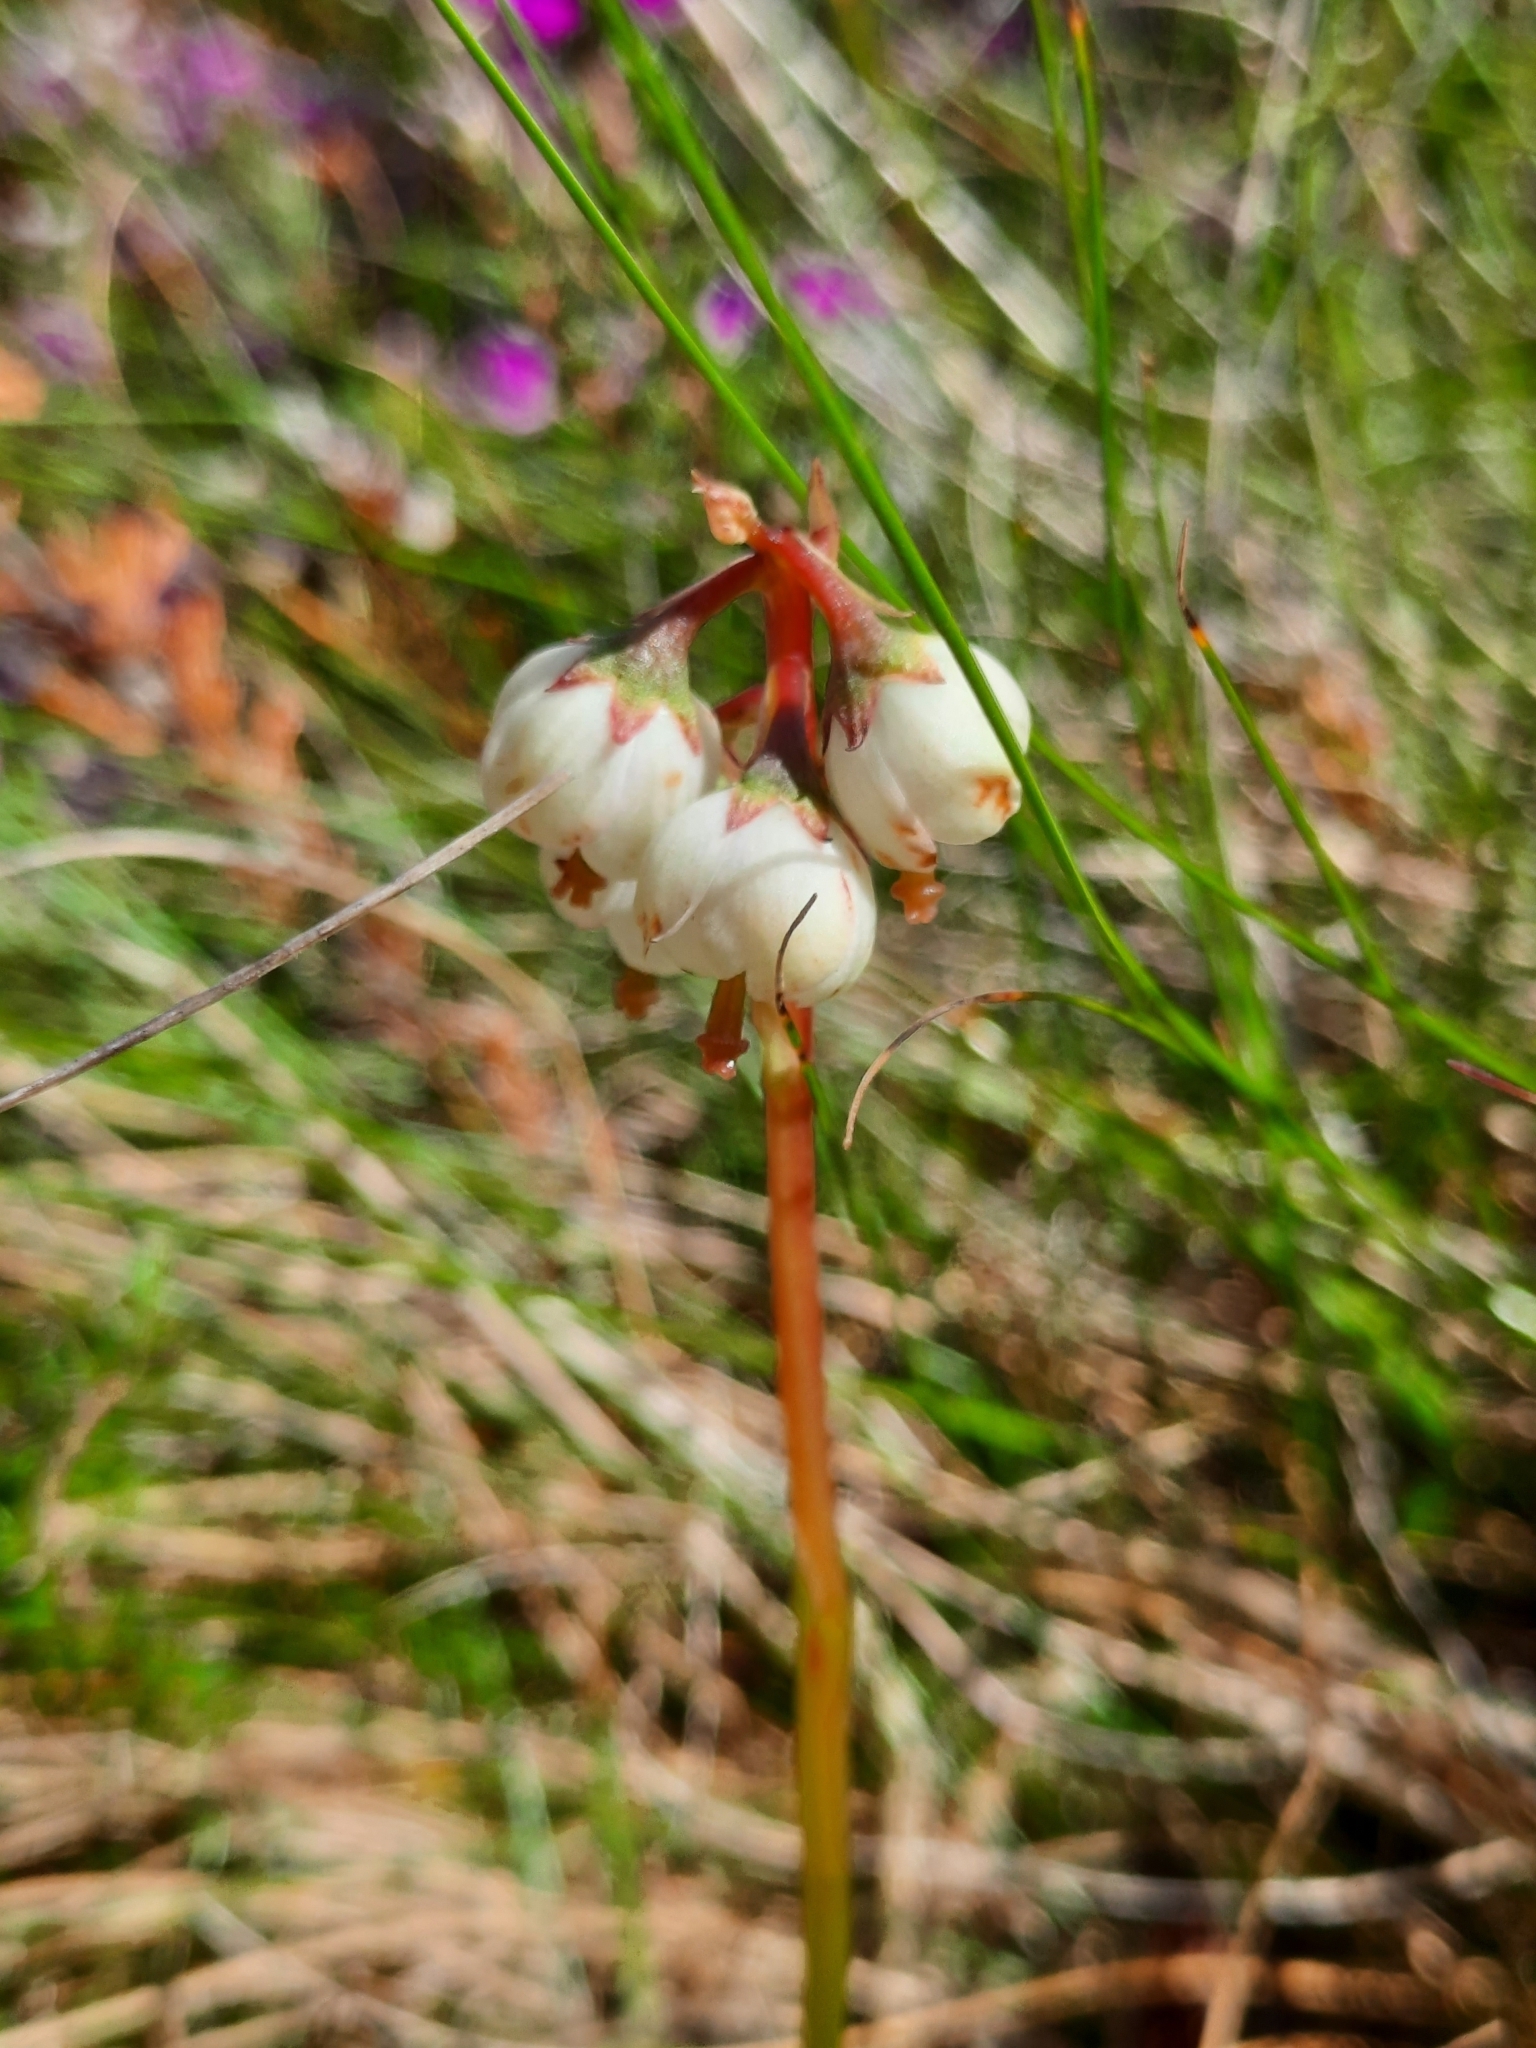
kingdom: Plantae
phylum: Tracheophyta
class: Magnoliopsida
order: Ericales
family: Ericaceae
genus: Pyrola
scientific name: Pyrola media
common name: Intermediate wintergreen
